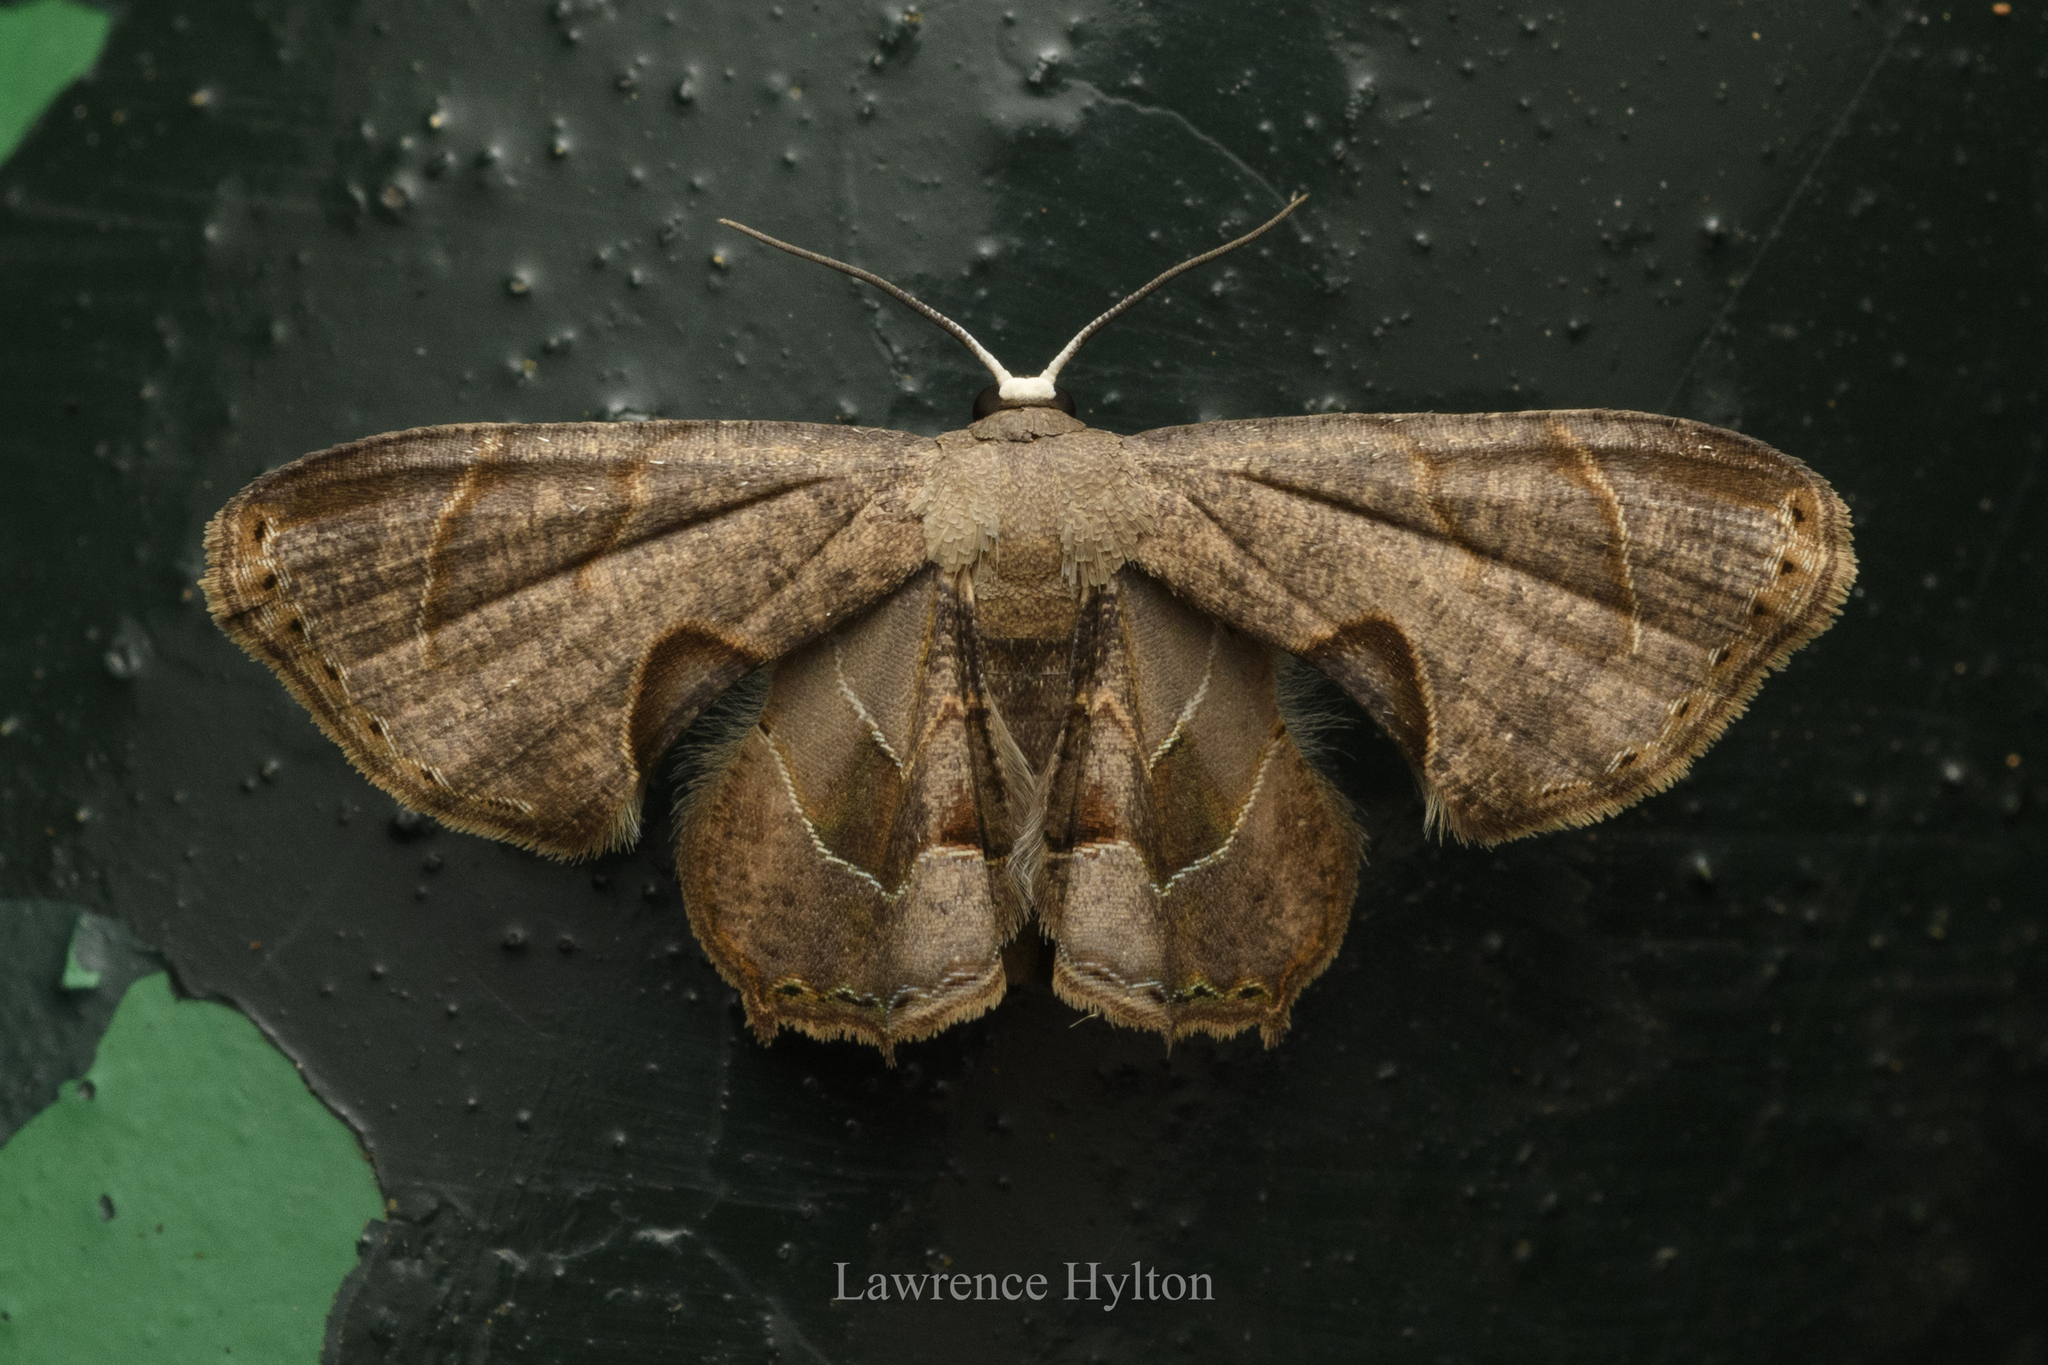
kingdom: Animalia
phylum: Arthropoda
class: Insecta
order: Lepidoptera
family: Uraniidae
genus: Phazaca
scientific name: Phazaca leucocera
